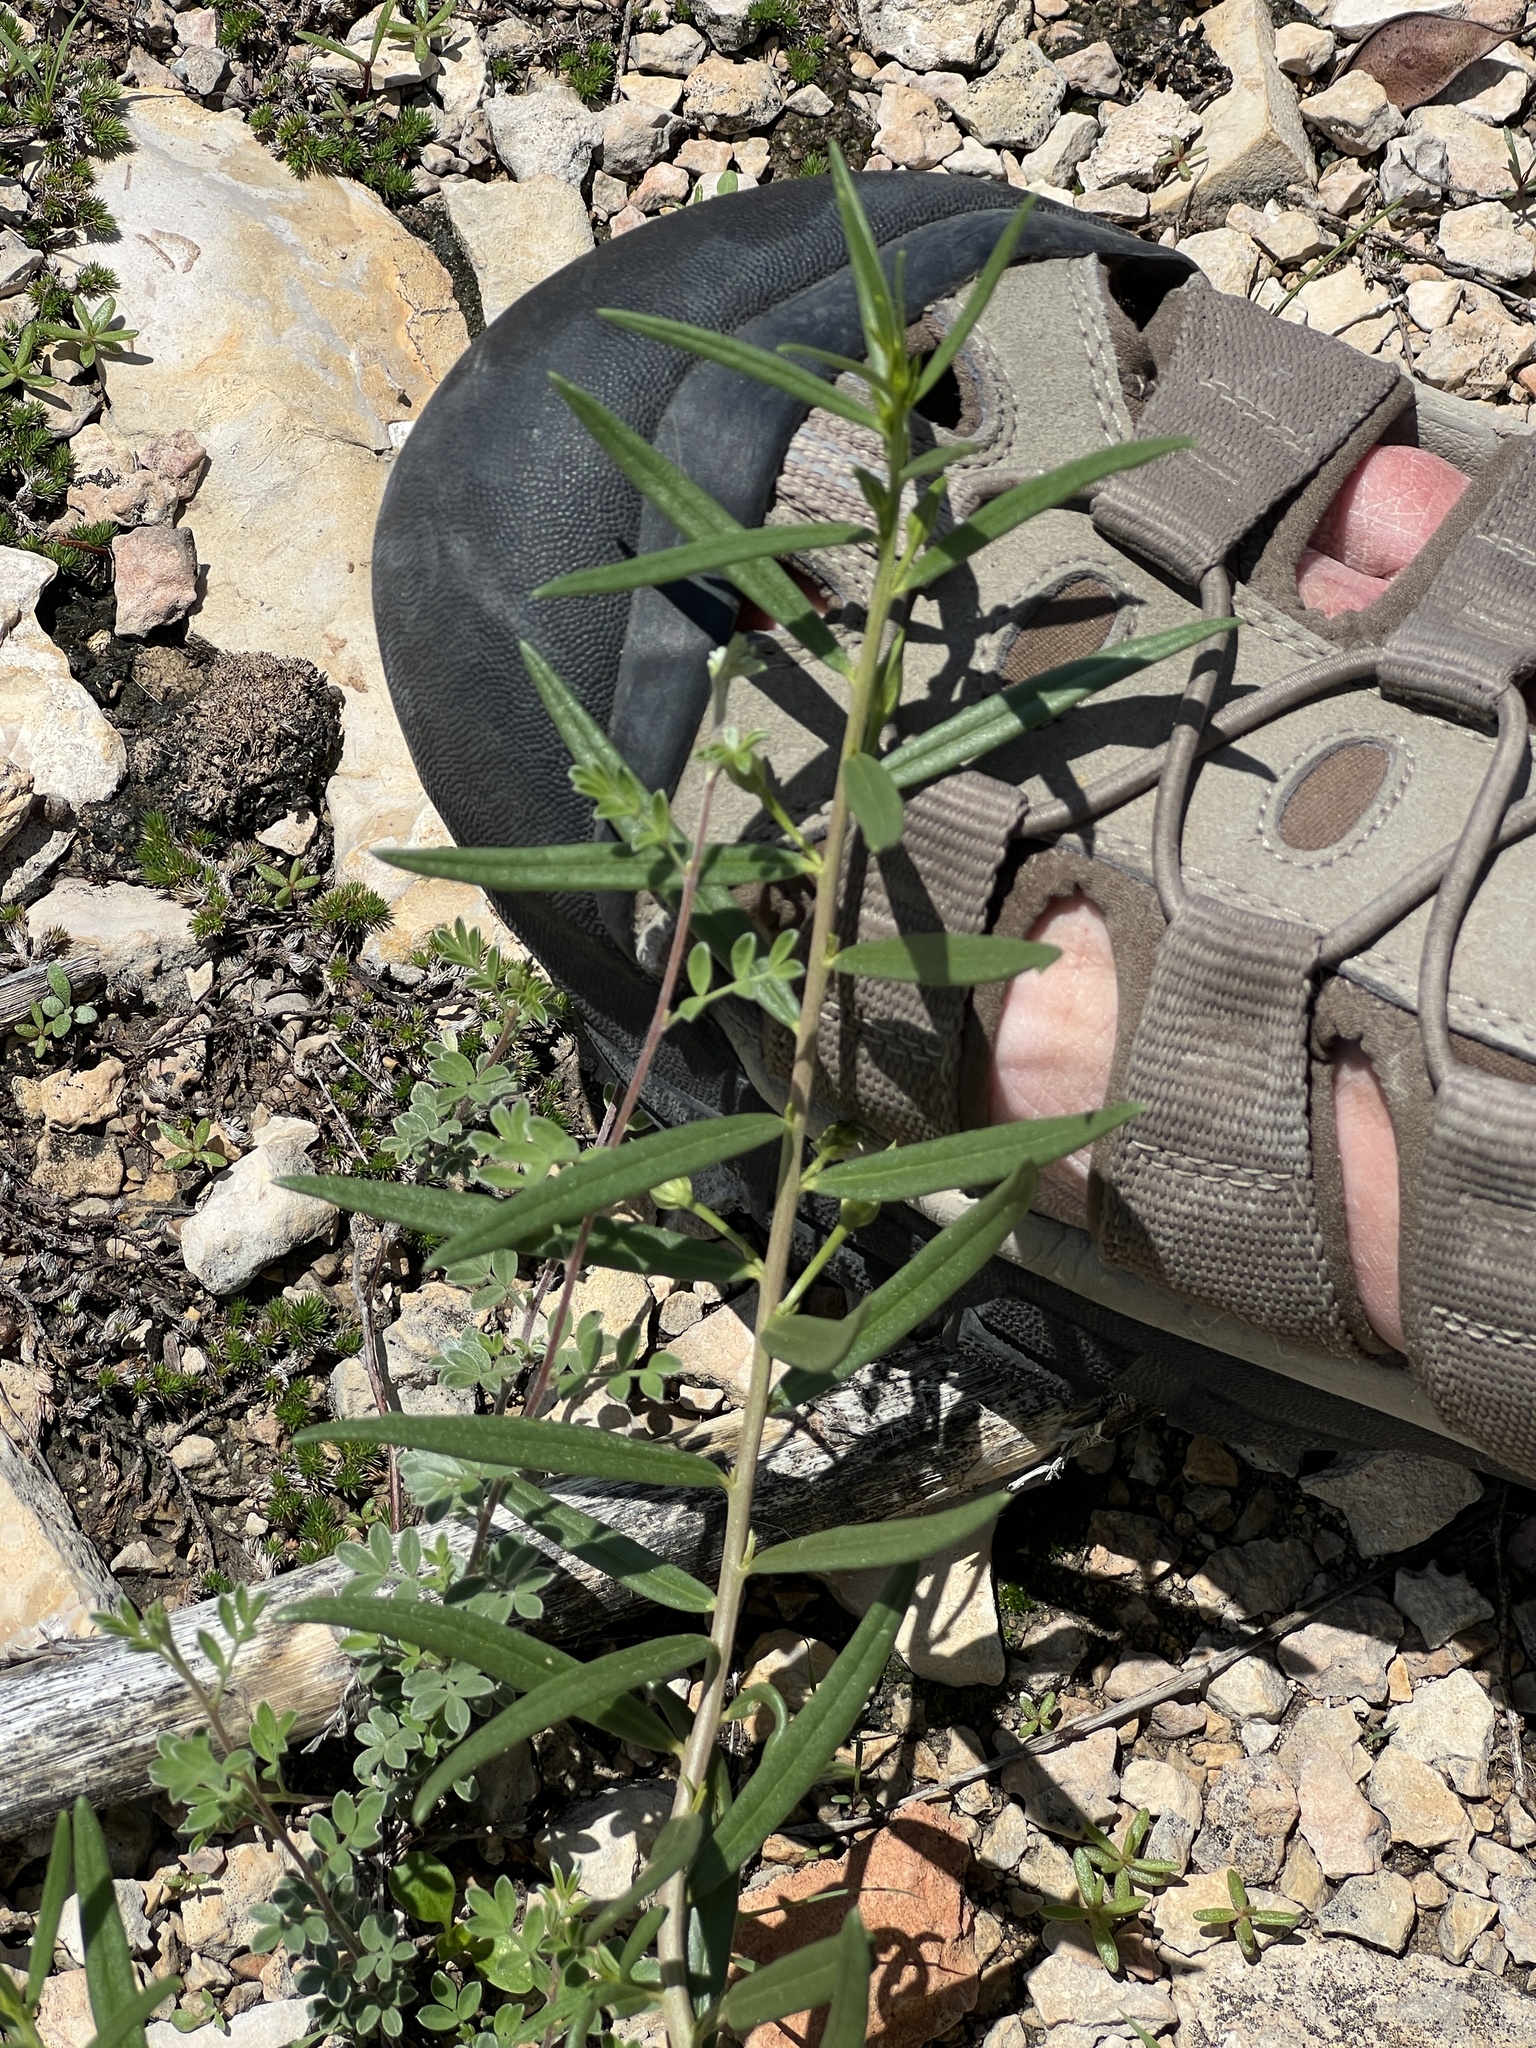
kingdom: Plantae
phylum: Tracheophyta
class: Magnoliopsida
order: Caryophyllales
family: Montiaceae
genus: Phemeranthus
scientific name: Phemeranthus aurantiacus
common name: Orange fameflower
